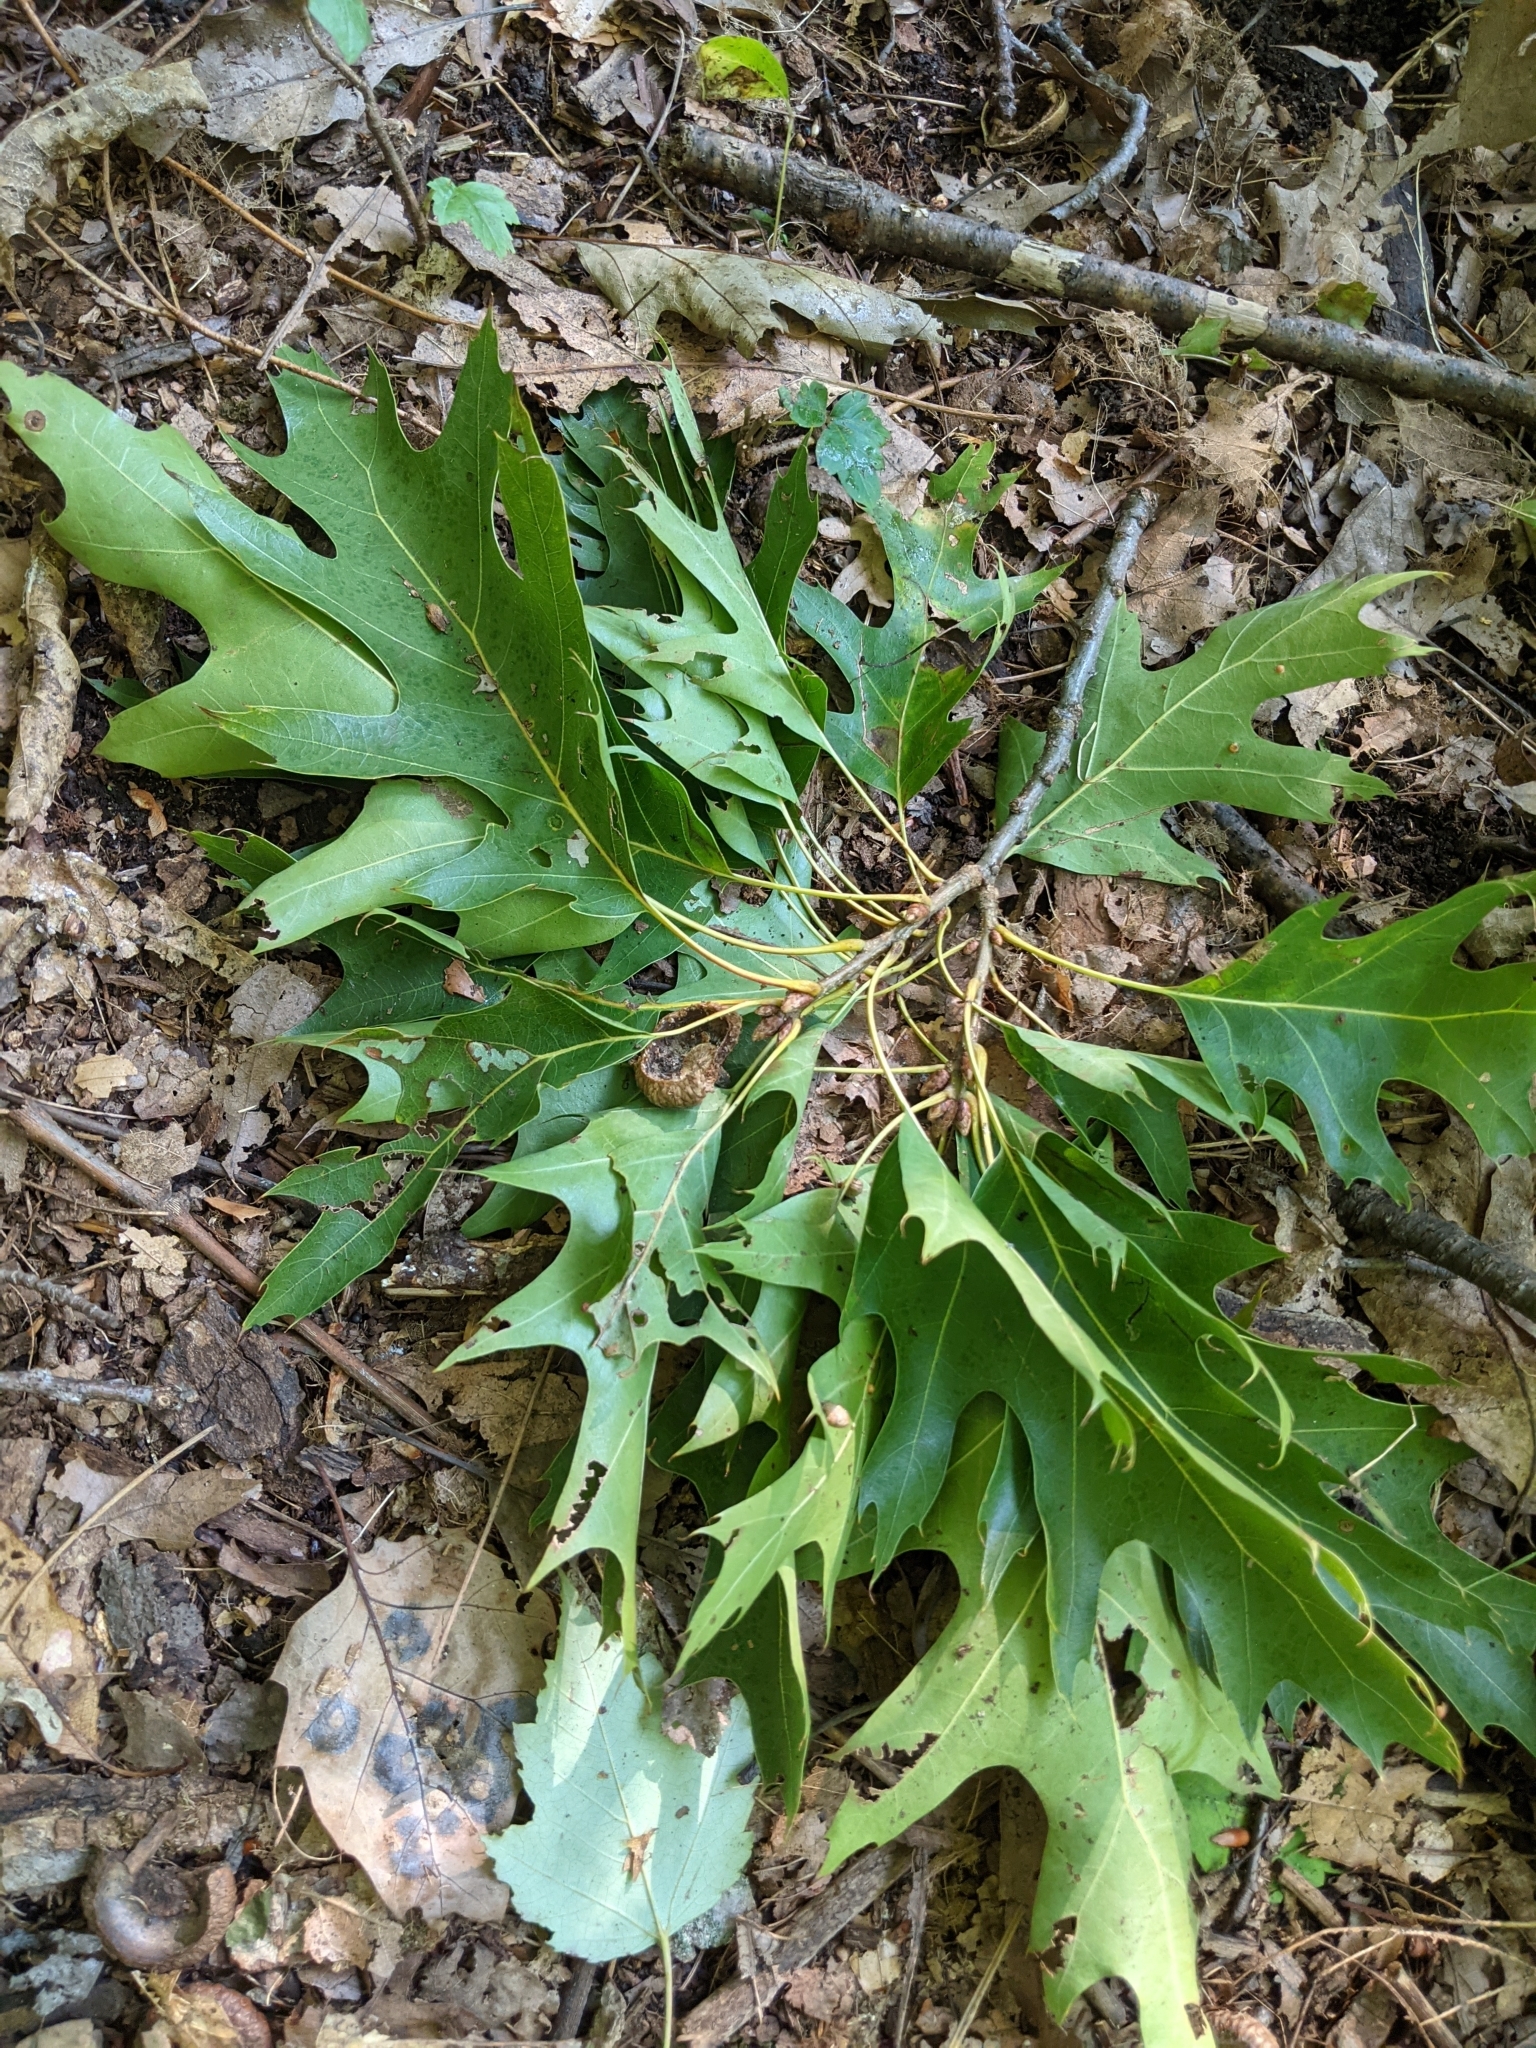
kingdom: Plantae
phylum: Tracheophyta
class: Magnoliopsida
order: Fagales
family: Fagaceae
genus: Quercus
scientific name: Quercus rubra
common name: Red oak
